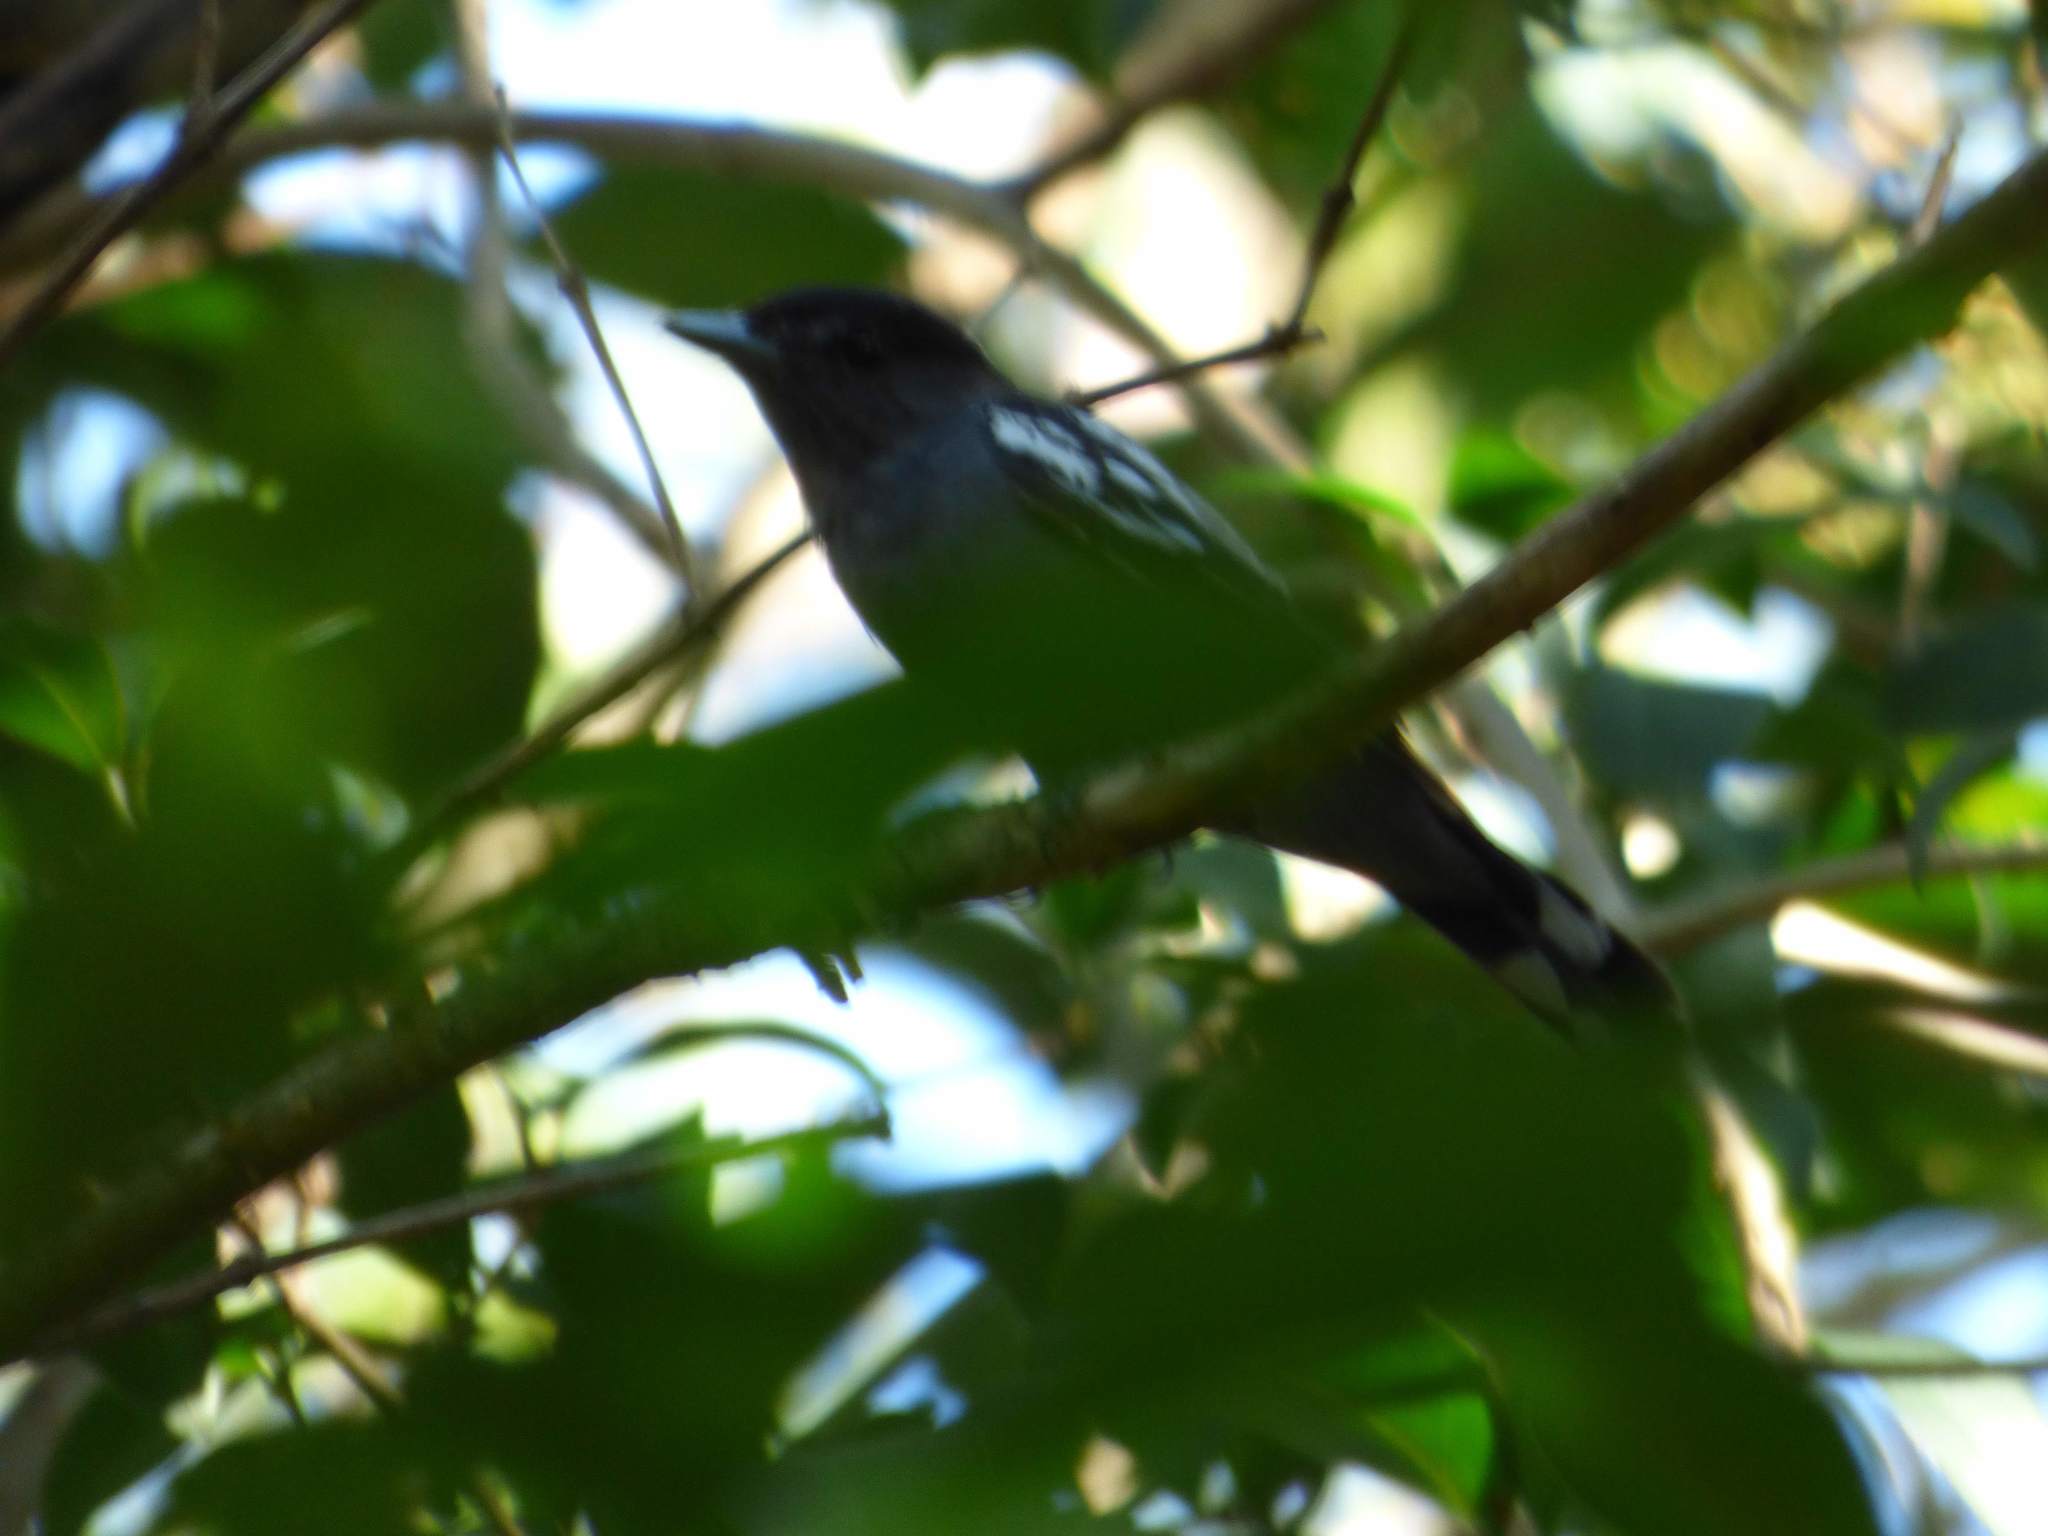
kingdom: Animalia
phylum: Chordata
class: Aves
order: Passeriformes
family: Cotingidae
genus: Pachyramphus
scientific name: Pachyramphus polychopterus
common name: White-winged becard
